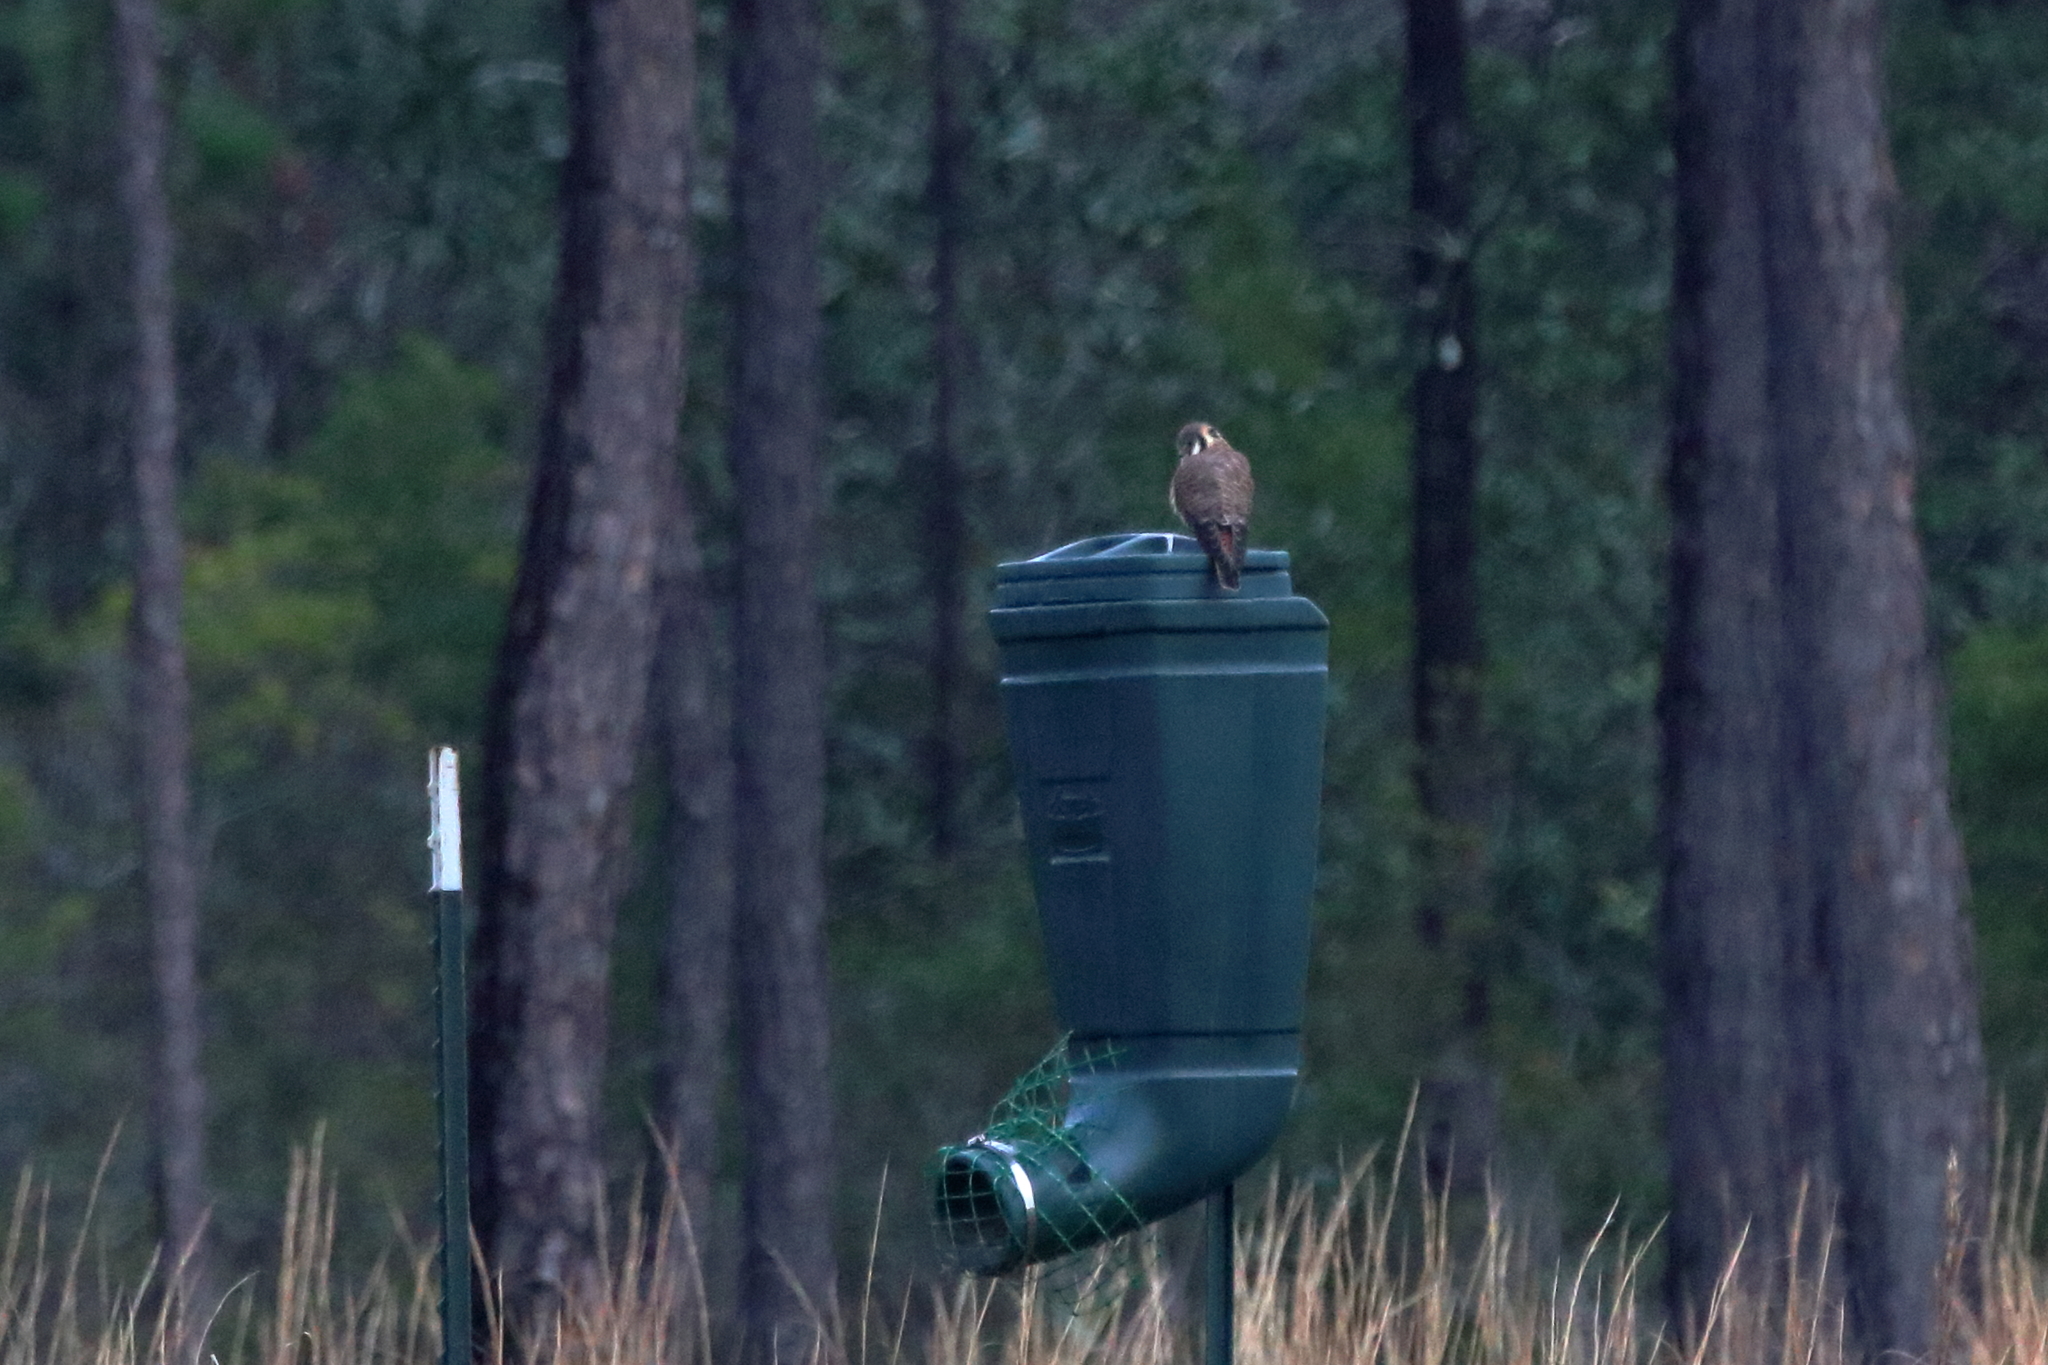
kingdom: Animalia
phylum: Chordata
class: Aves
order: Falconiformes
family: Falconidae
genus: Falco
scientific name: Falco sparverius
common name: American kestrel
